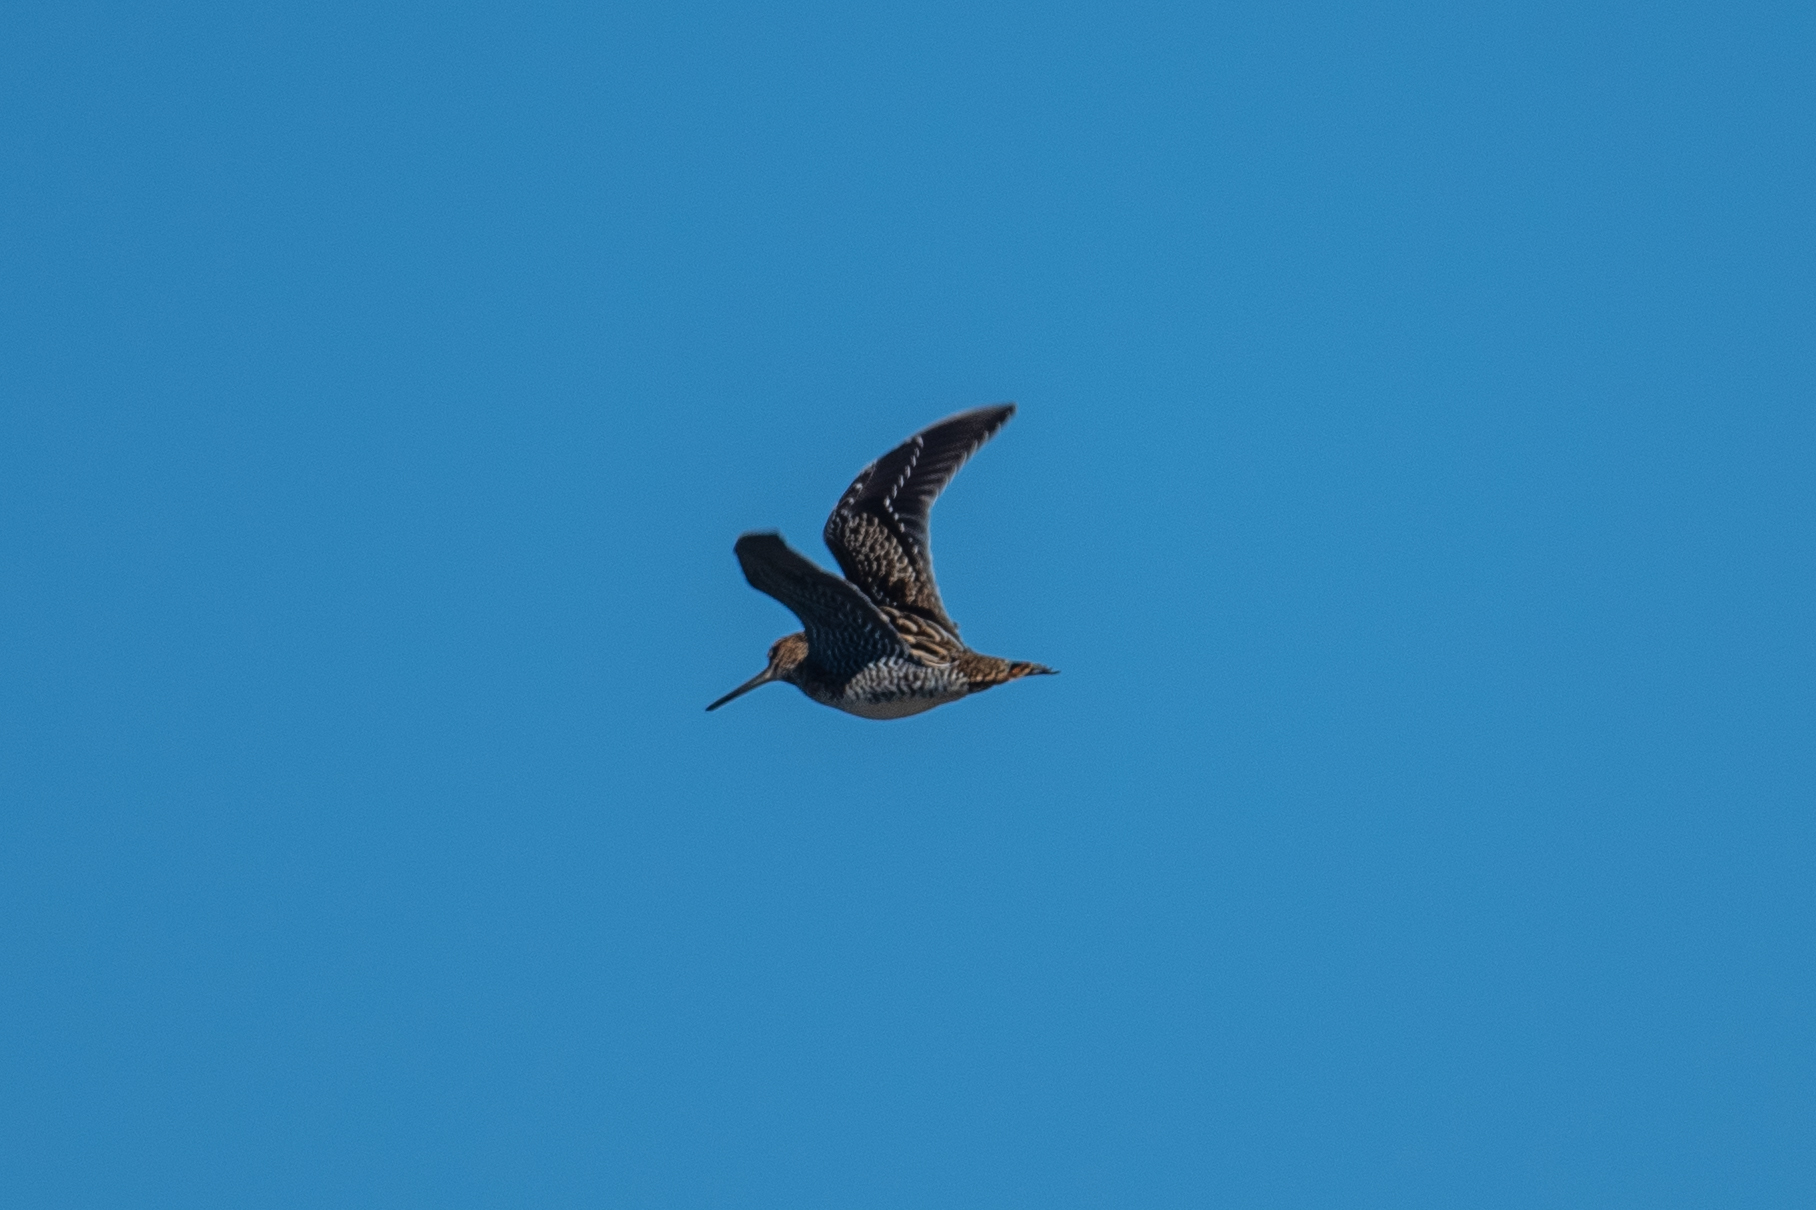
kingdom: Animalia
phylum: Chordata
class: Aves
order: Charadriiformes
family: Scolopacidae
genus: Gallinago
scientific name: Gallinago delicata
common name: Wilson's snipe
